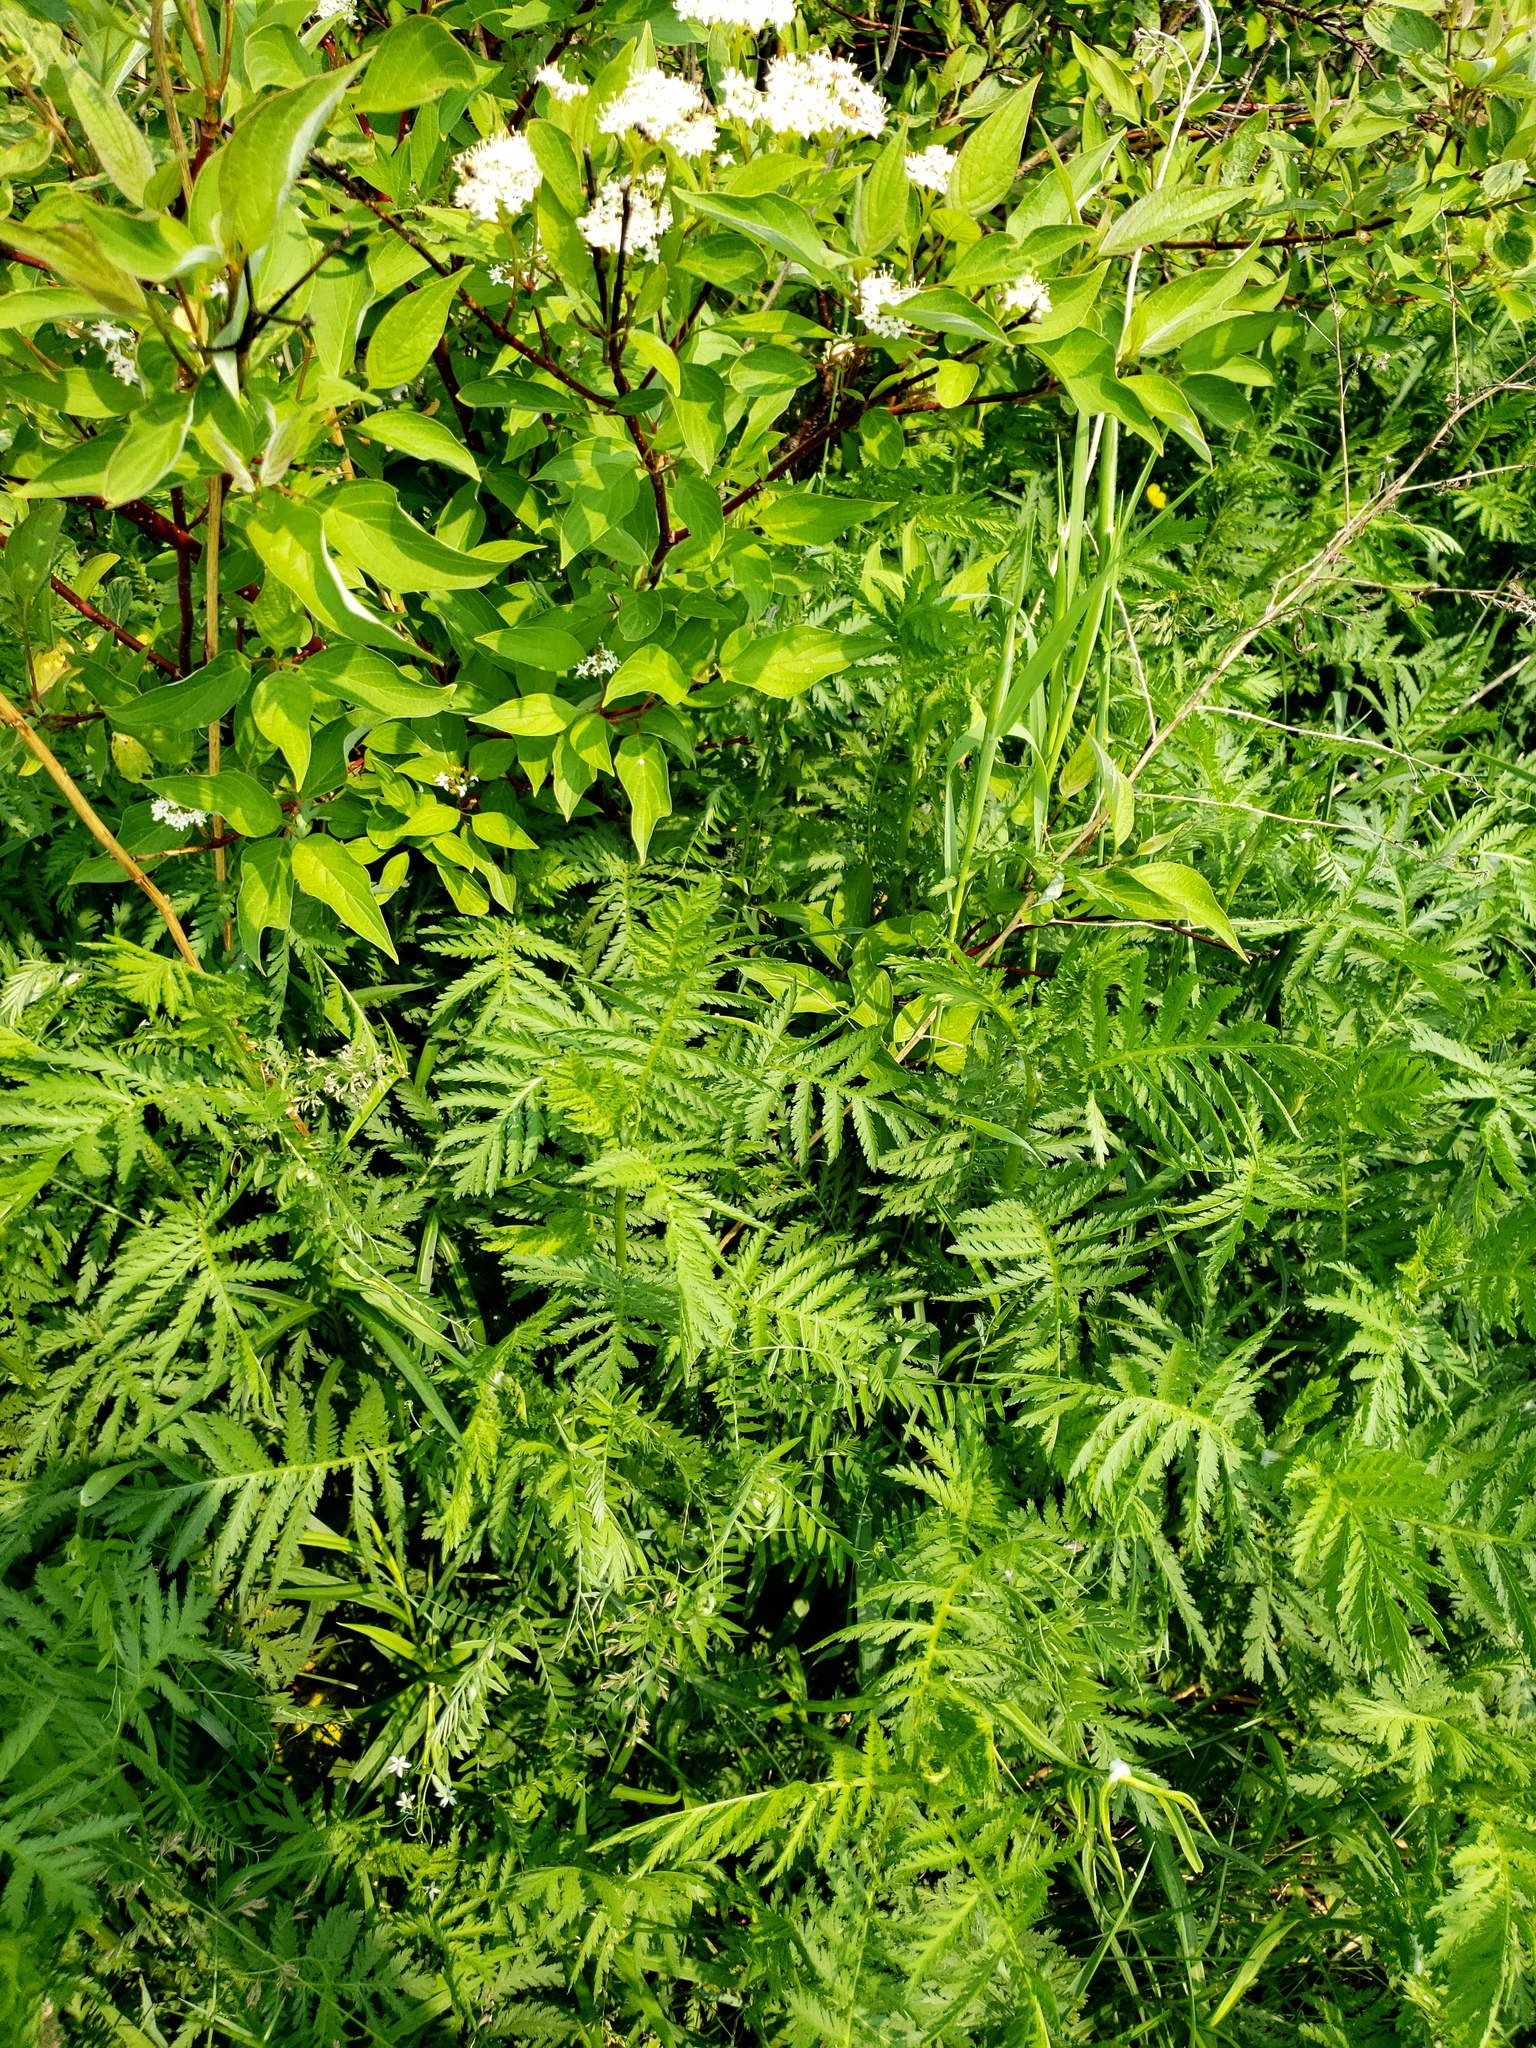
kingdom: Plantae
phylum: Tracheophyta
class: Magnoliopsida
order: Asterales
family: Asteraceae
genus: Tanacetum
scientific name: Tanacetum vulgare
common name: Common tansy
